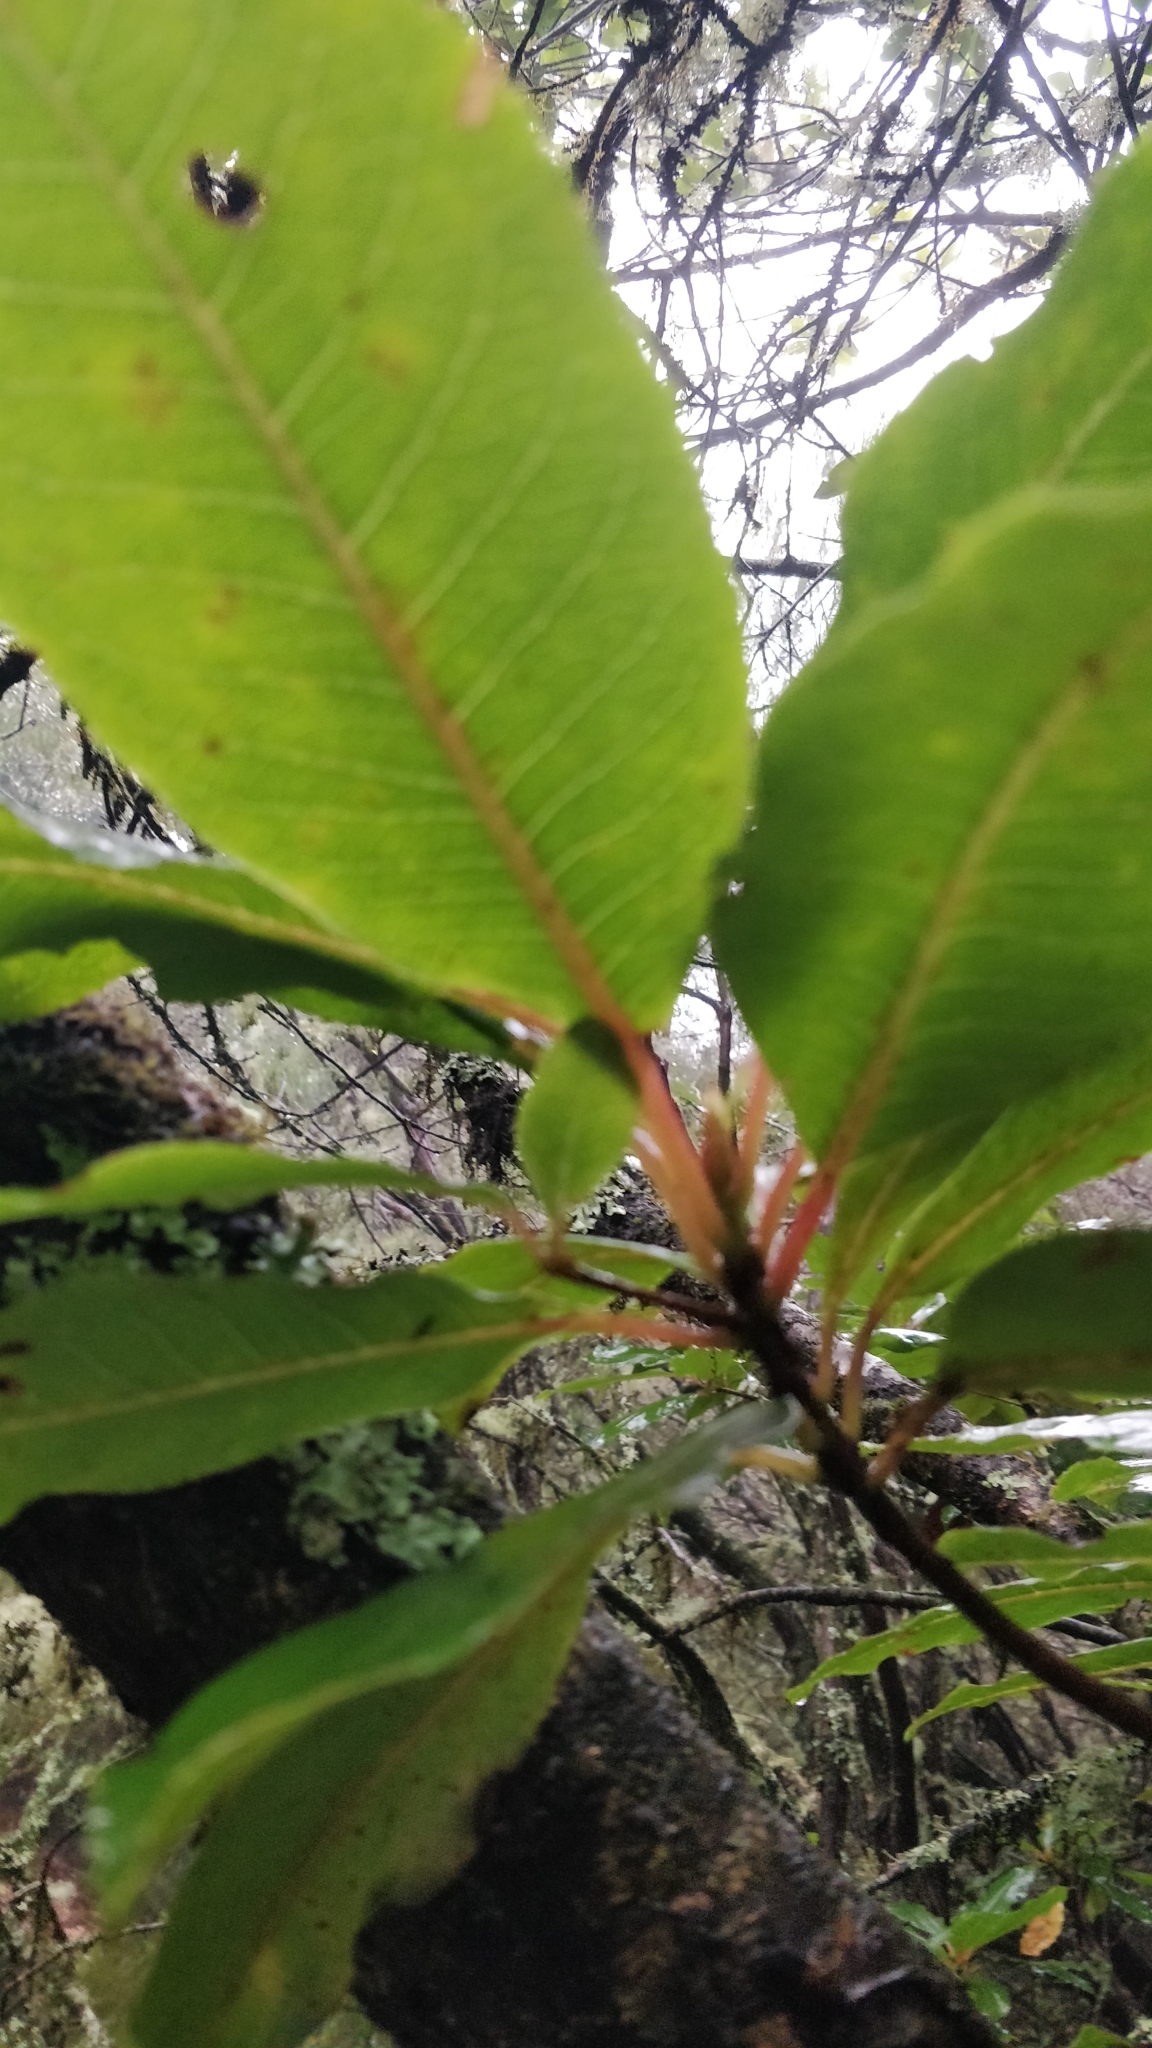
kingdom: Plantae
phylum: Tracheophyta
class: Magnoliopsida
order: Ericales
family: Clethraceae
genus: Clethra
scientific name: Clethra arborea
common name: Lily-of-the-valley-tree
